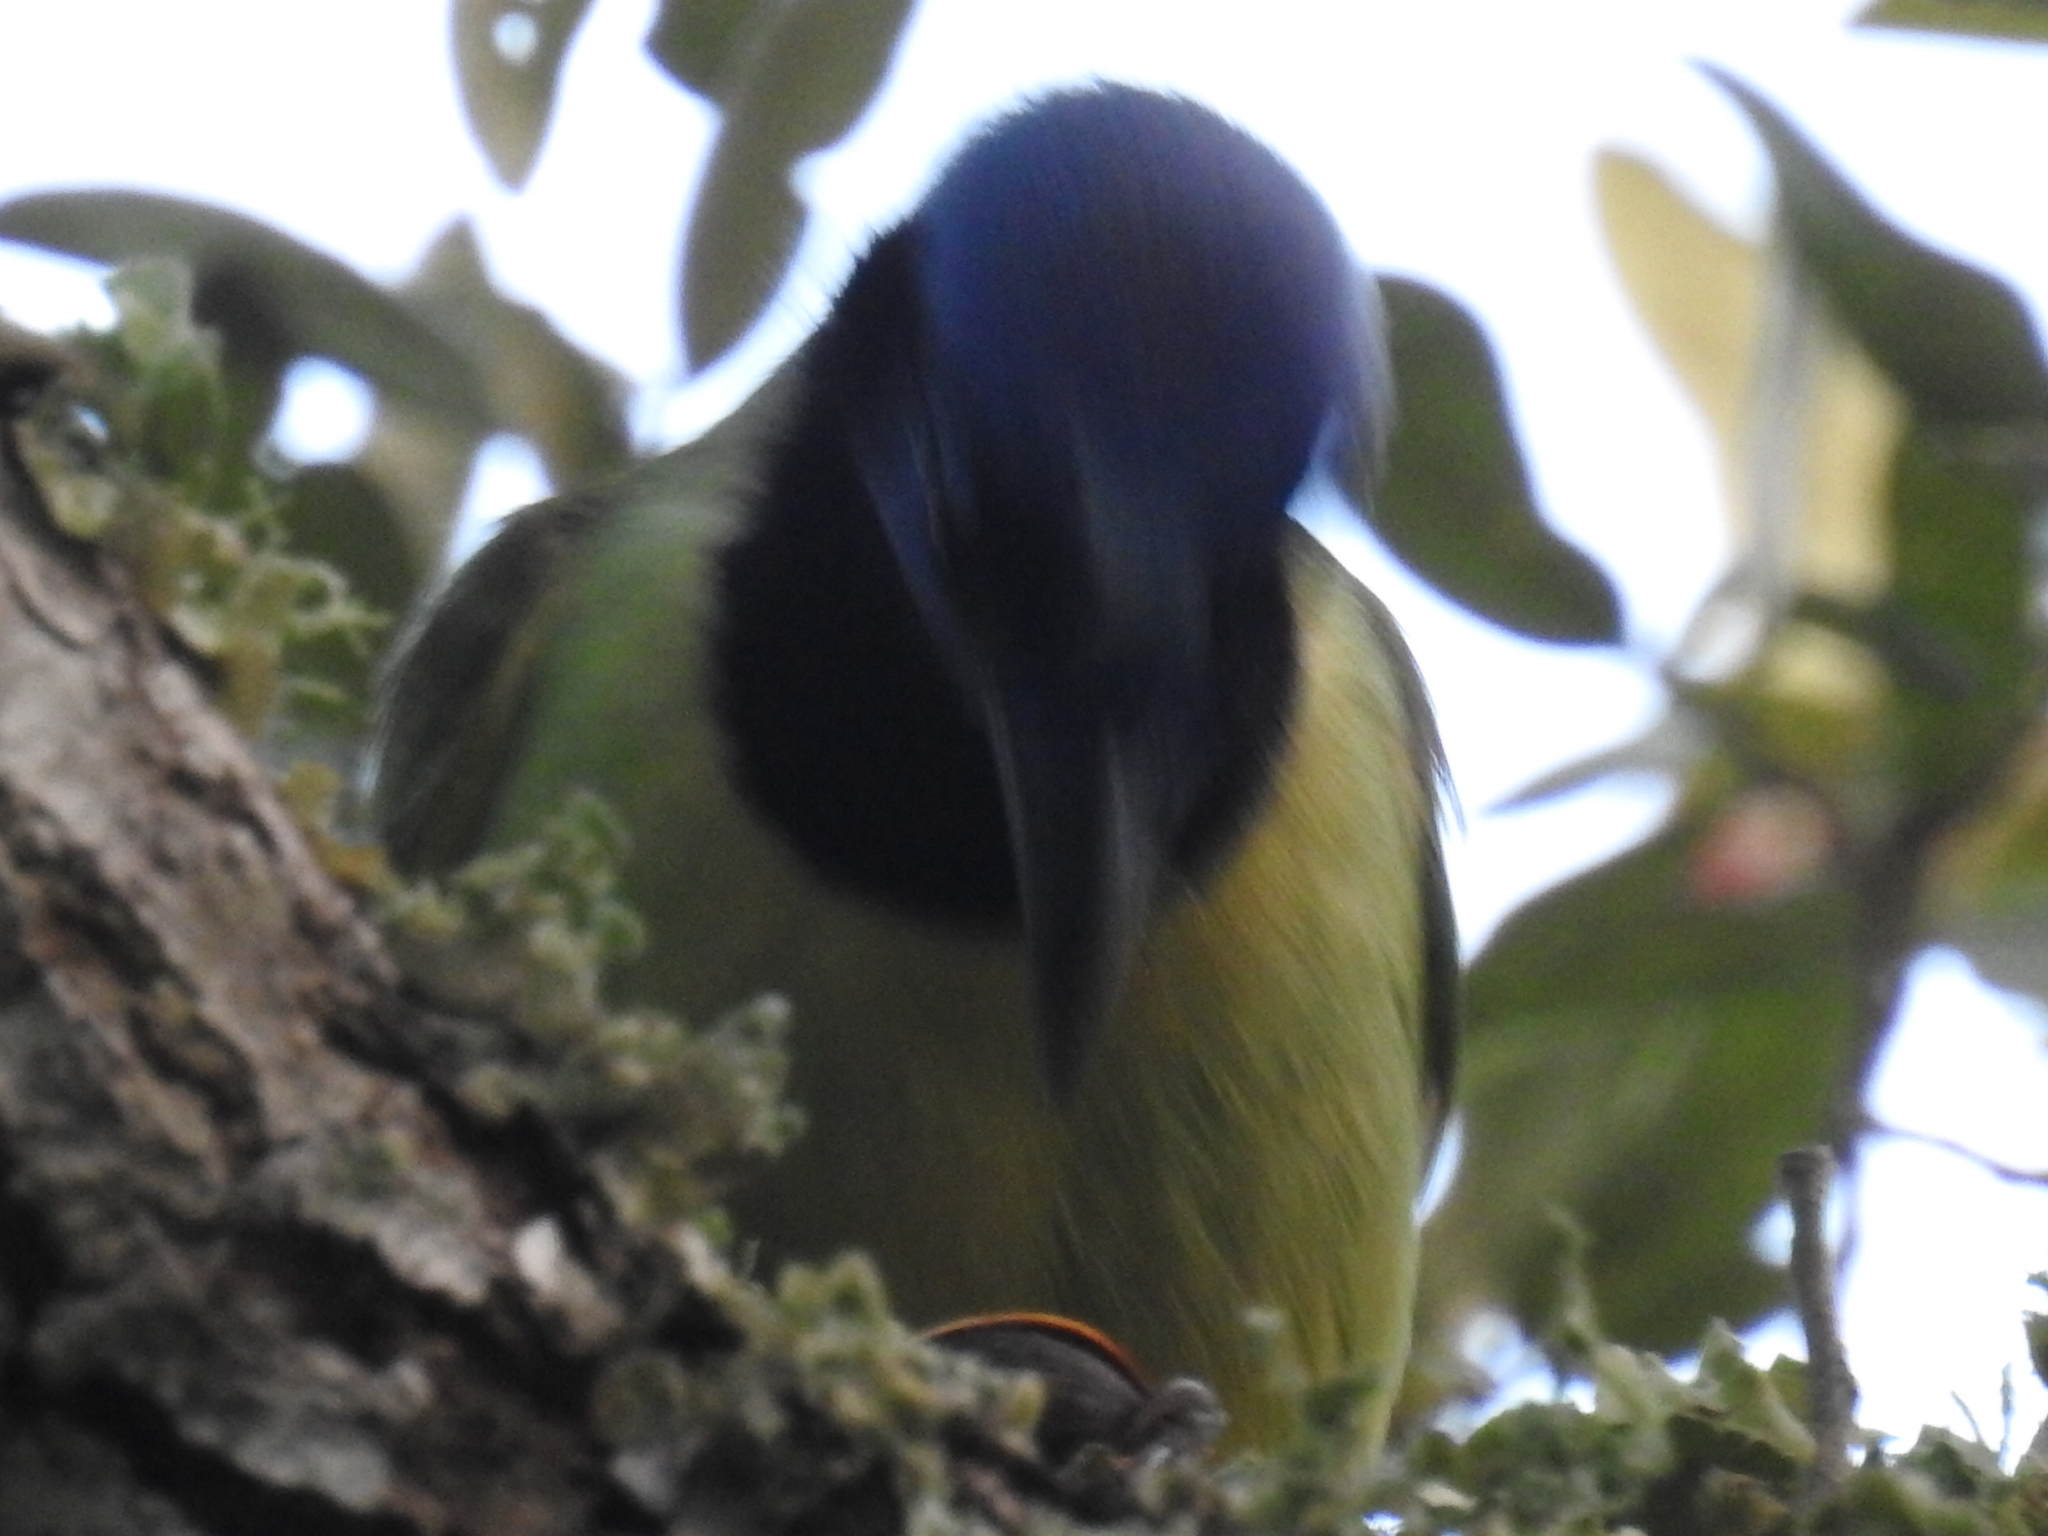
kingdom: Animalia
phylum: Chordata
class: Aves
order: Passeriformes
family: Corvidae
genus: Cyanocorax
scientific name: Cyanocorax yncas
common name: Green jay
